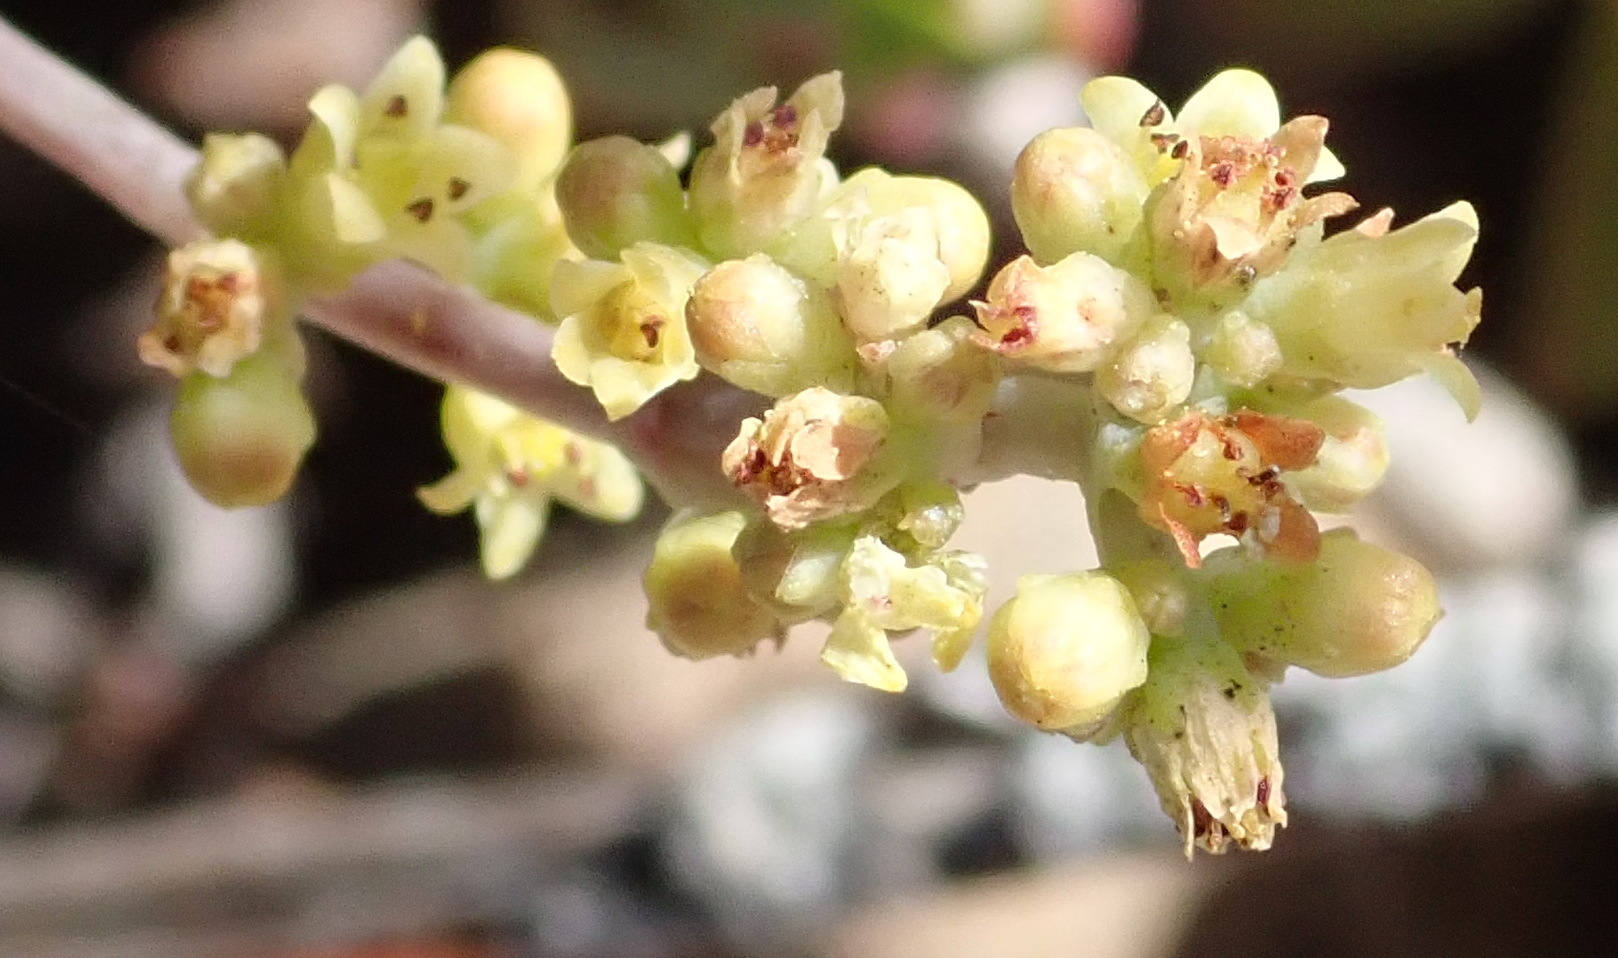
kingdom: Plantae
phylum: Tracheophyta
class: Magnoliopsida
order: Saxifragales
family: Crassulaceae
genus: Crassula
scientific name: Crassula perforata
